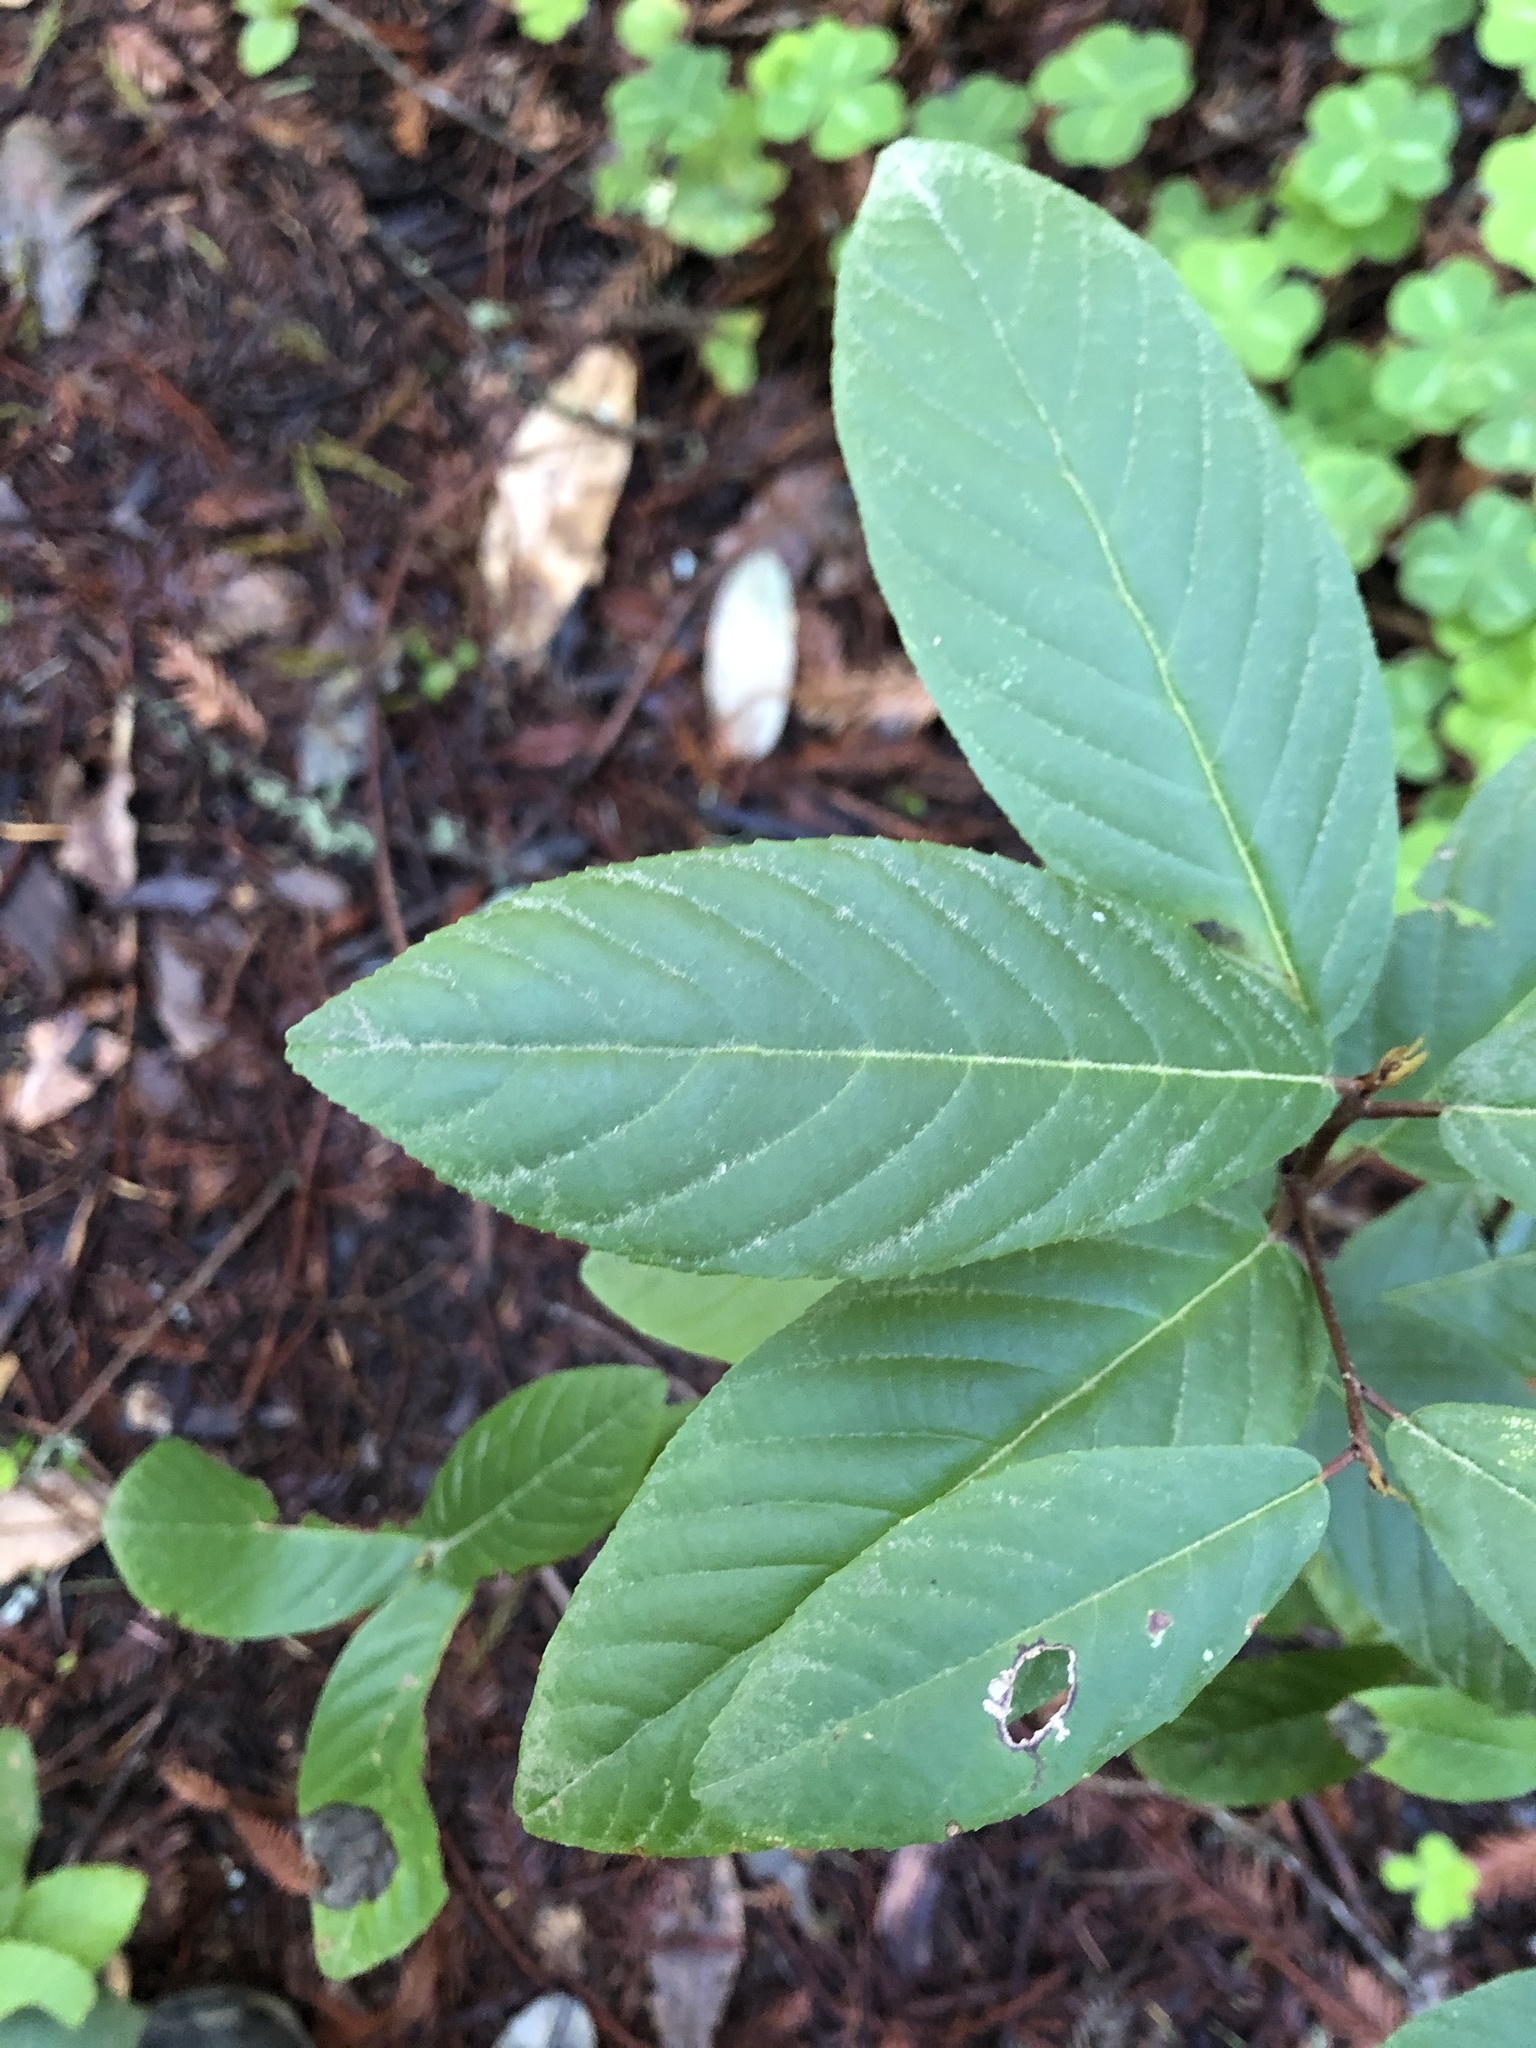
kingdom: Plantae
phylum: Tracheophyta
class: Magnoliopsida
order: Rosales
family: Rhamnaceae
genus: Frangula
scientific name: Frangula californica
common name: California buckthorn
